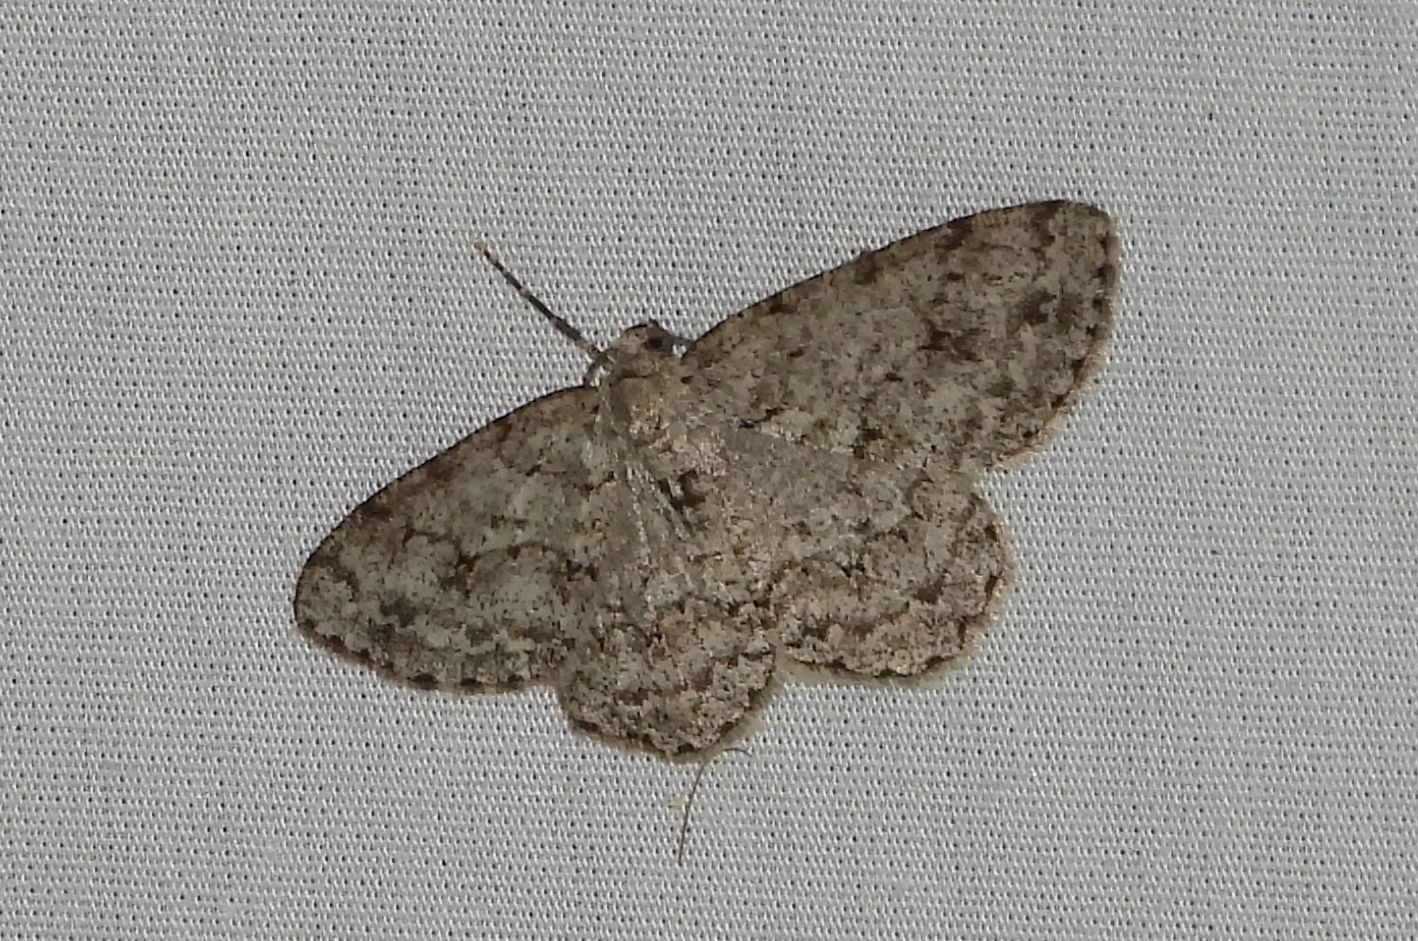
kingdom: Animalia
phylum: Arthropoda
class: Insecta
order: Lepidoptera
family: Geometridae
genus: Ectropis
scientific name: Ectropis crepuscularia
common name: Engrailed
